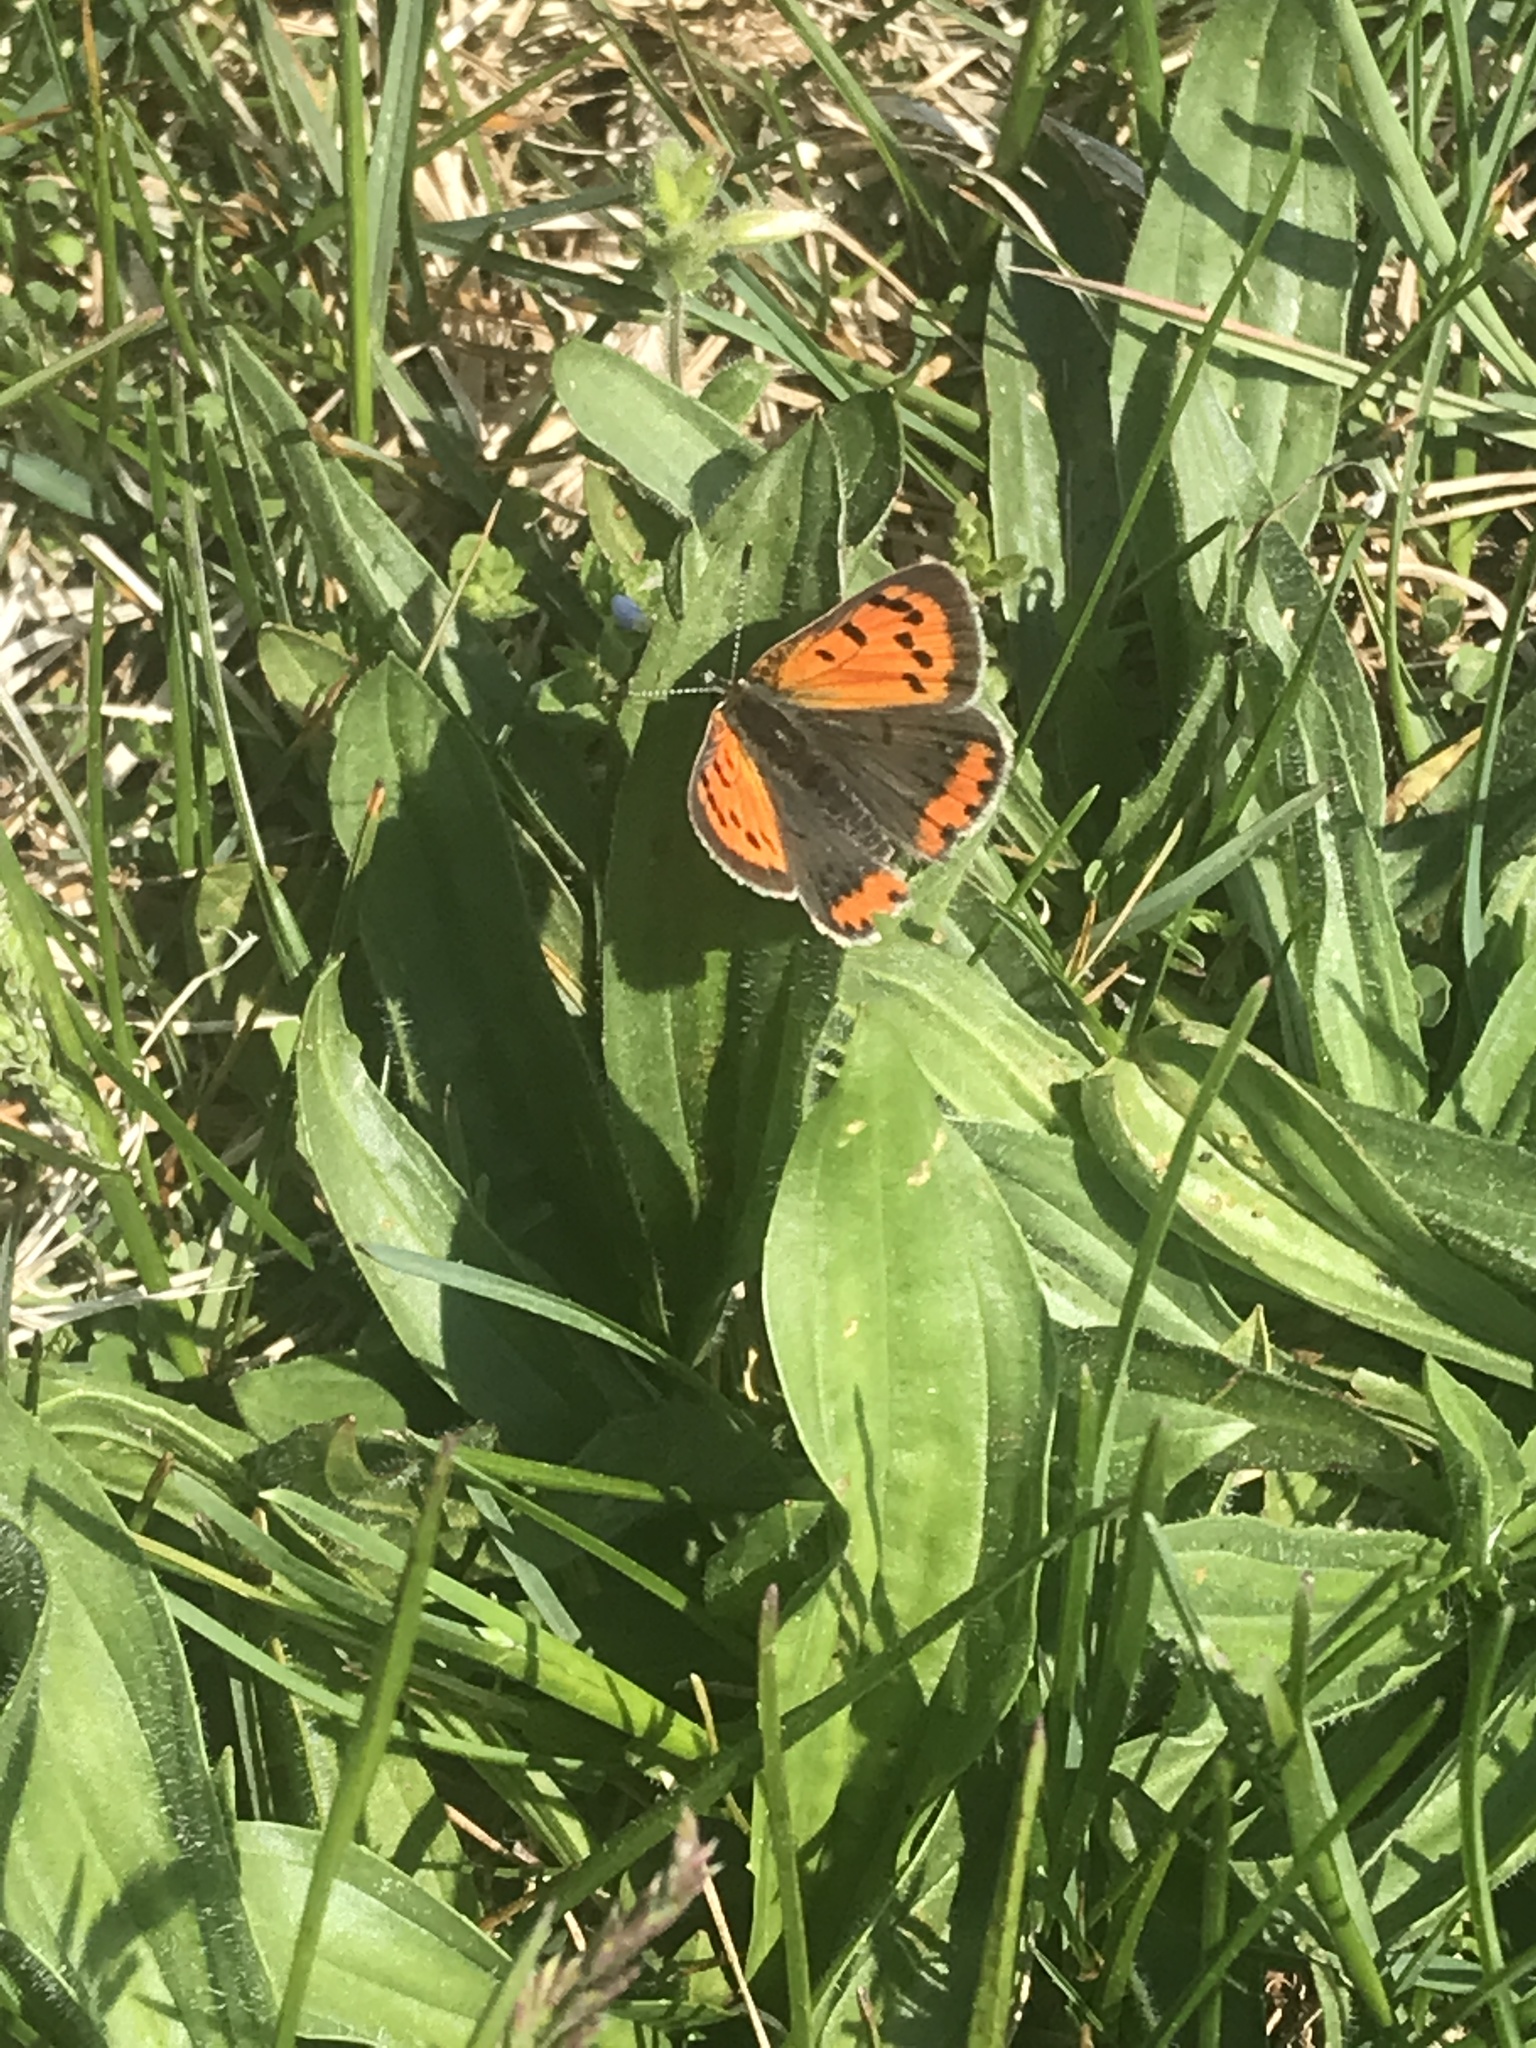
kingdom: Animalia
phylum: Arthropoda
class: Insecta
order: Lepidoptera
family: Lycaenidae
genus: Lycaena
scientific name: Lycaena hypophlaeas
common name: American copper
